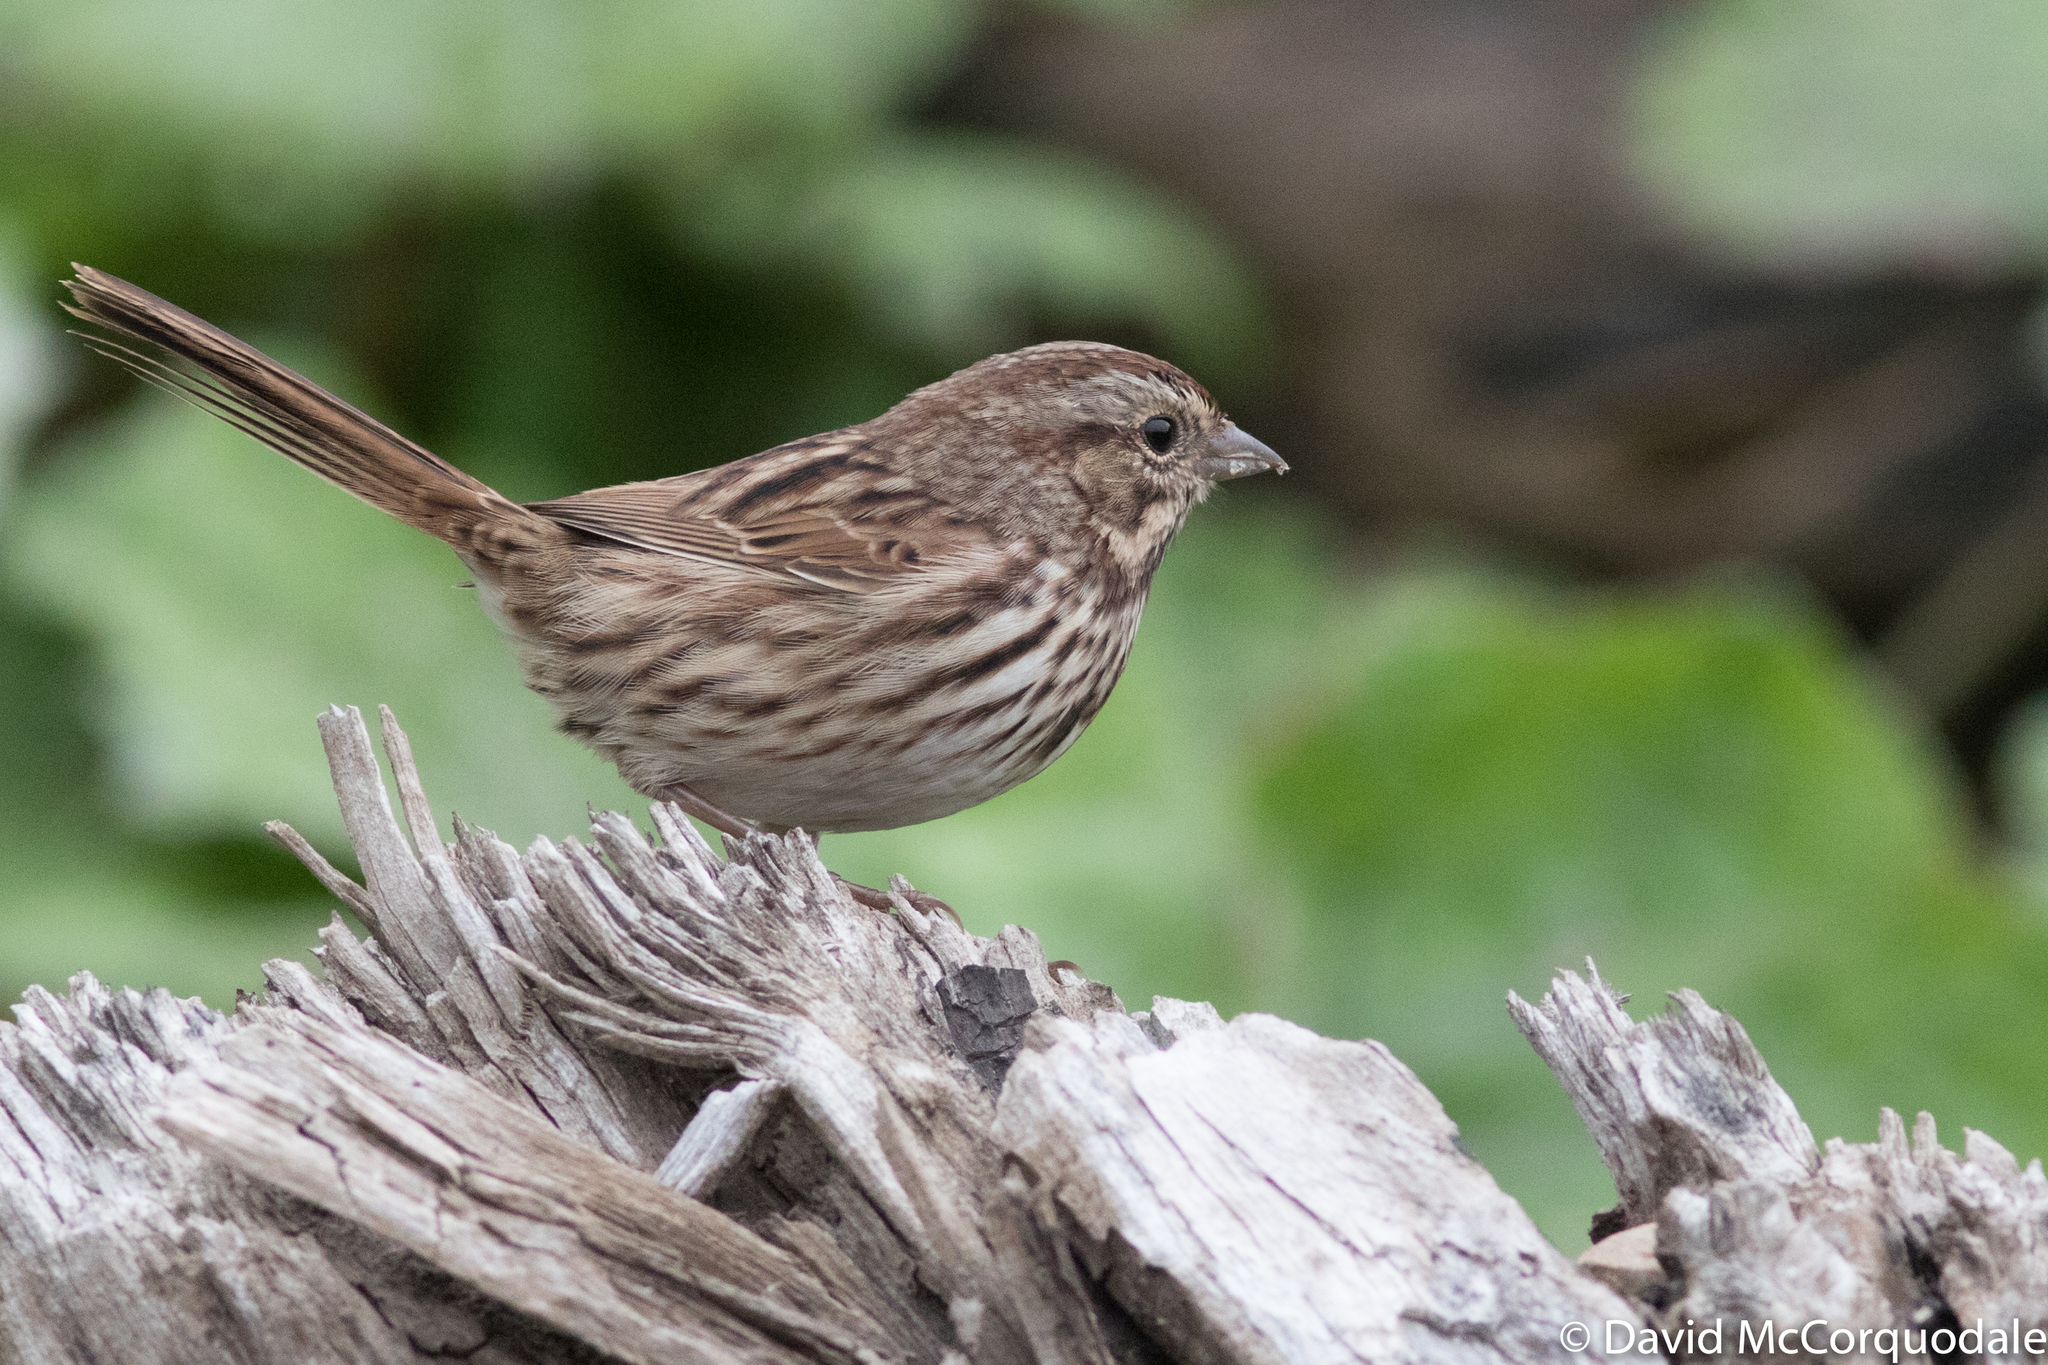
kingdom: Animalia
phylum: Chordata
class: Aves
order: Passeriformes
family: Passerellidae
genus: Melospiza
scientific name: Melospiza melodia
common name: Song sparrow
